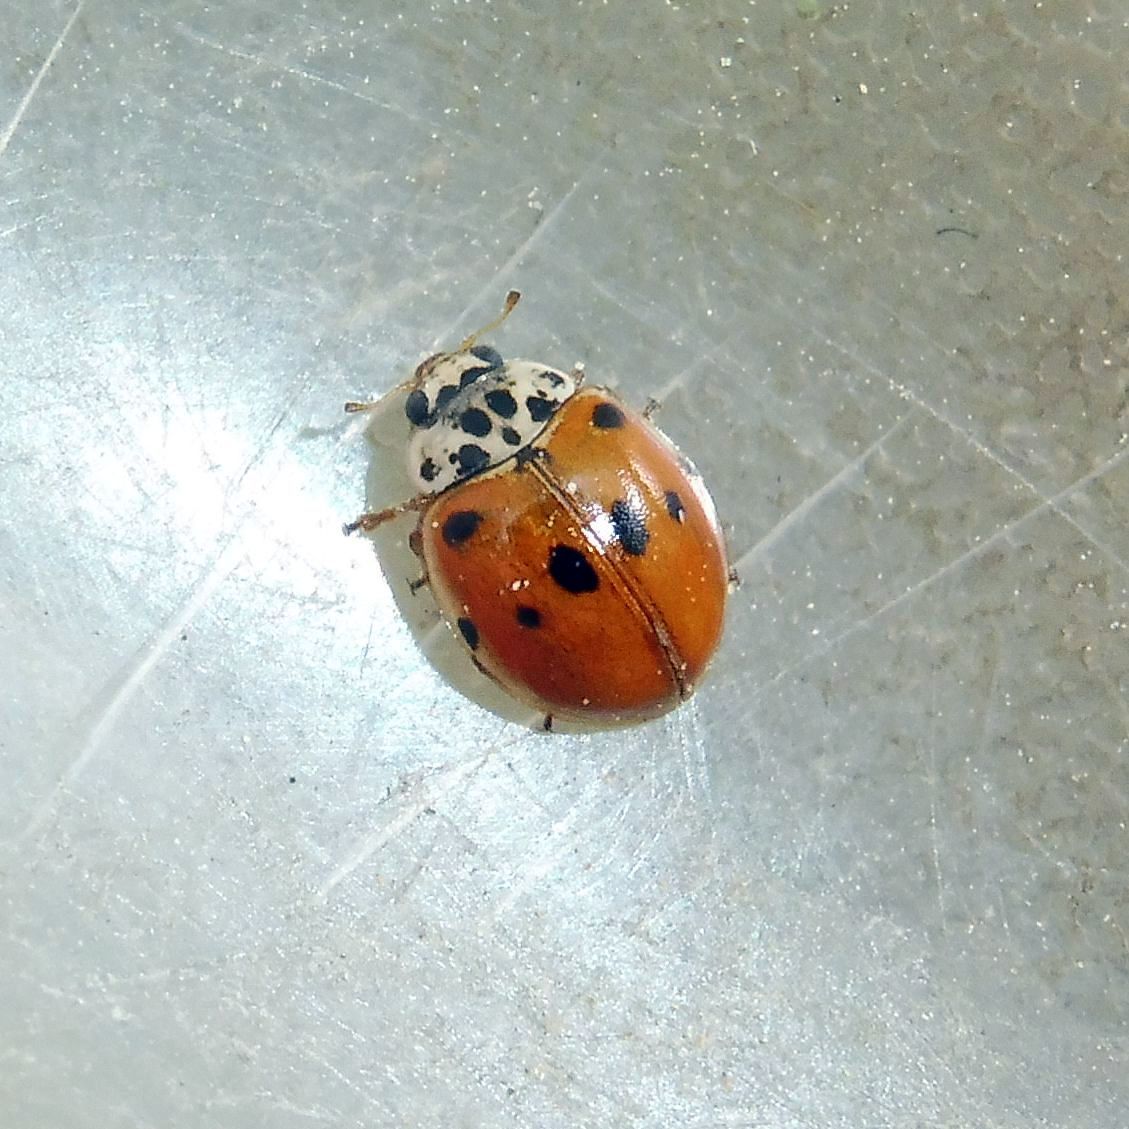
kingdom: Animalia
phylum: Arthropoda
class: Insecta
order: Coleoptera
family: Coccinellidae
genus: Adalia
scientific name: Adalia decempunctata
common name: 10-spot ladybird
